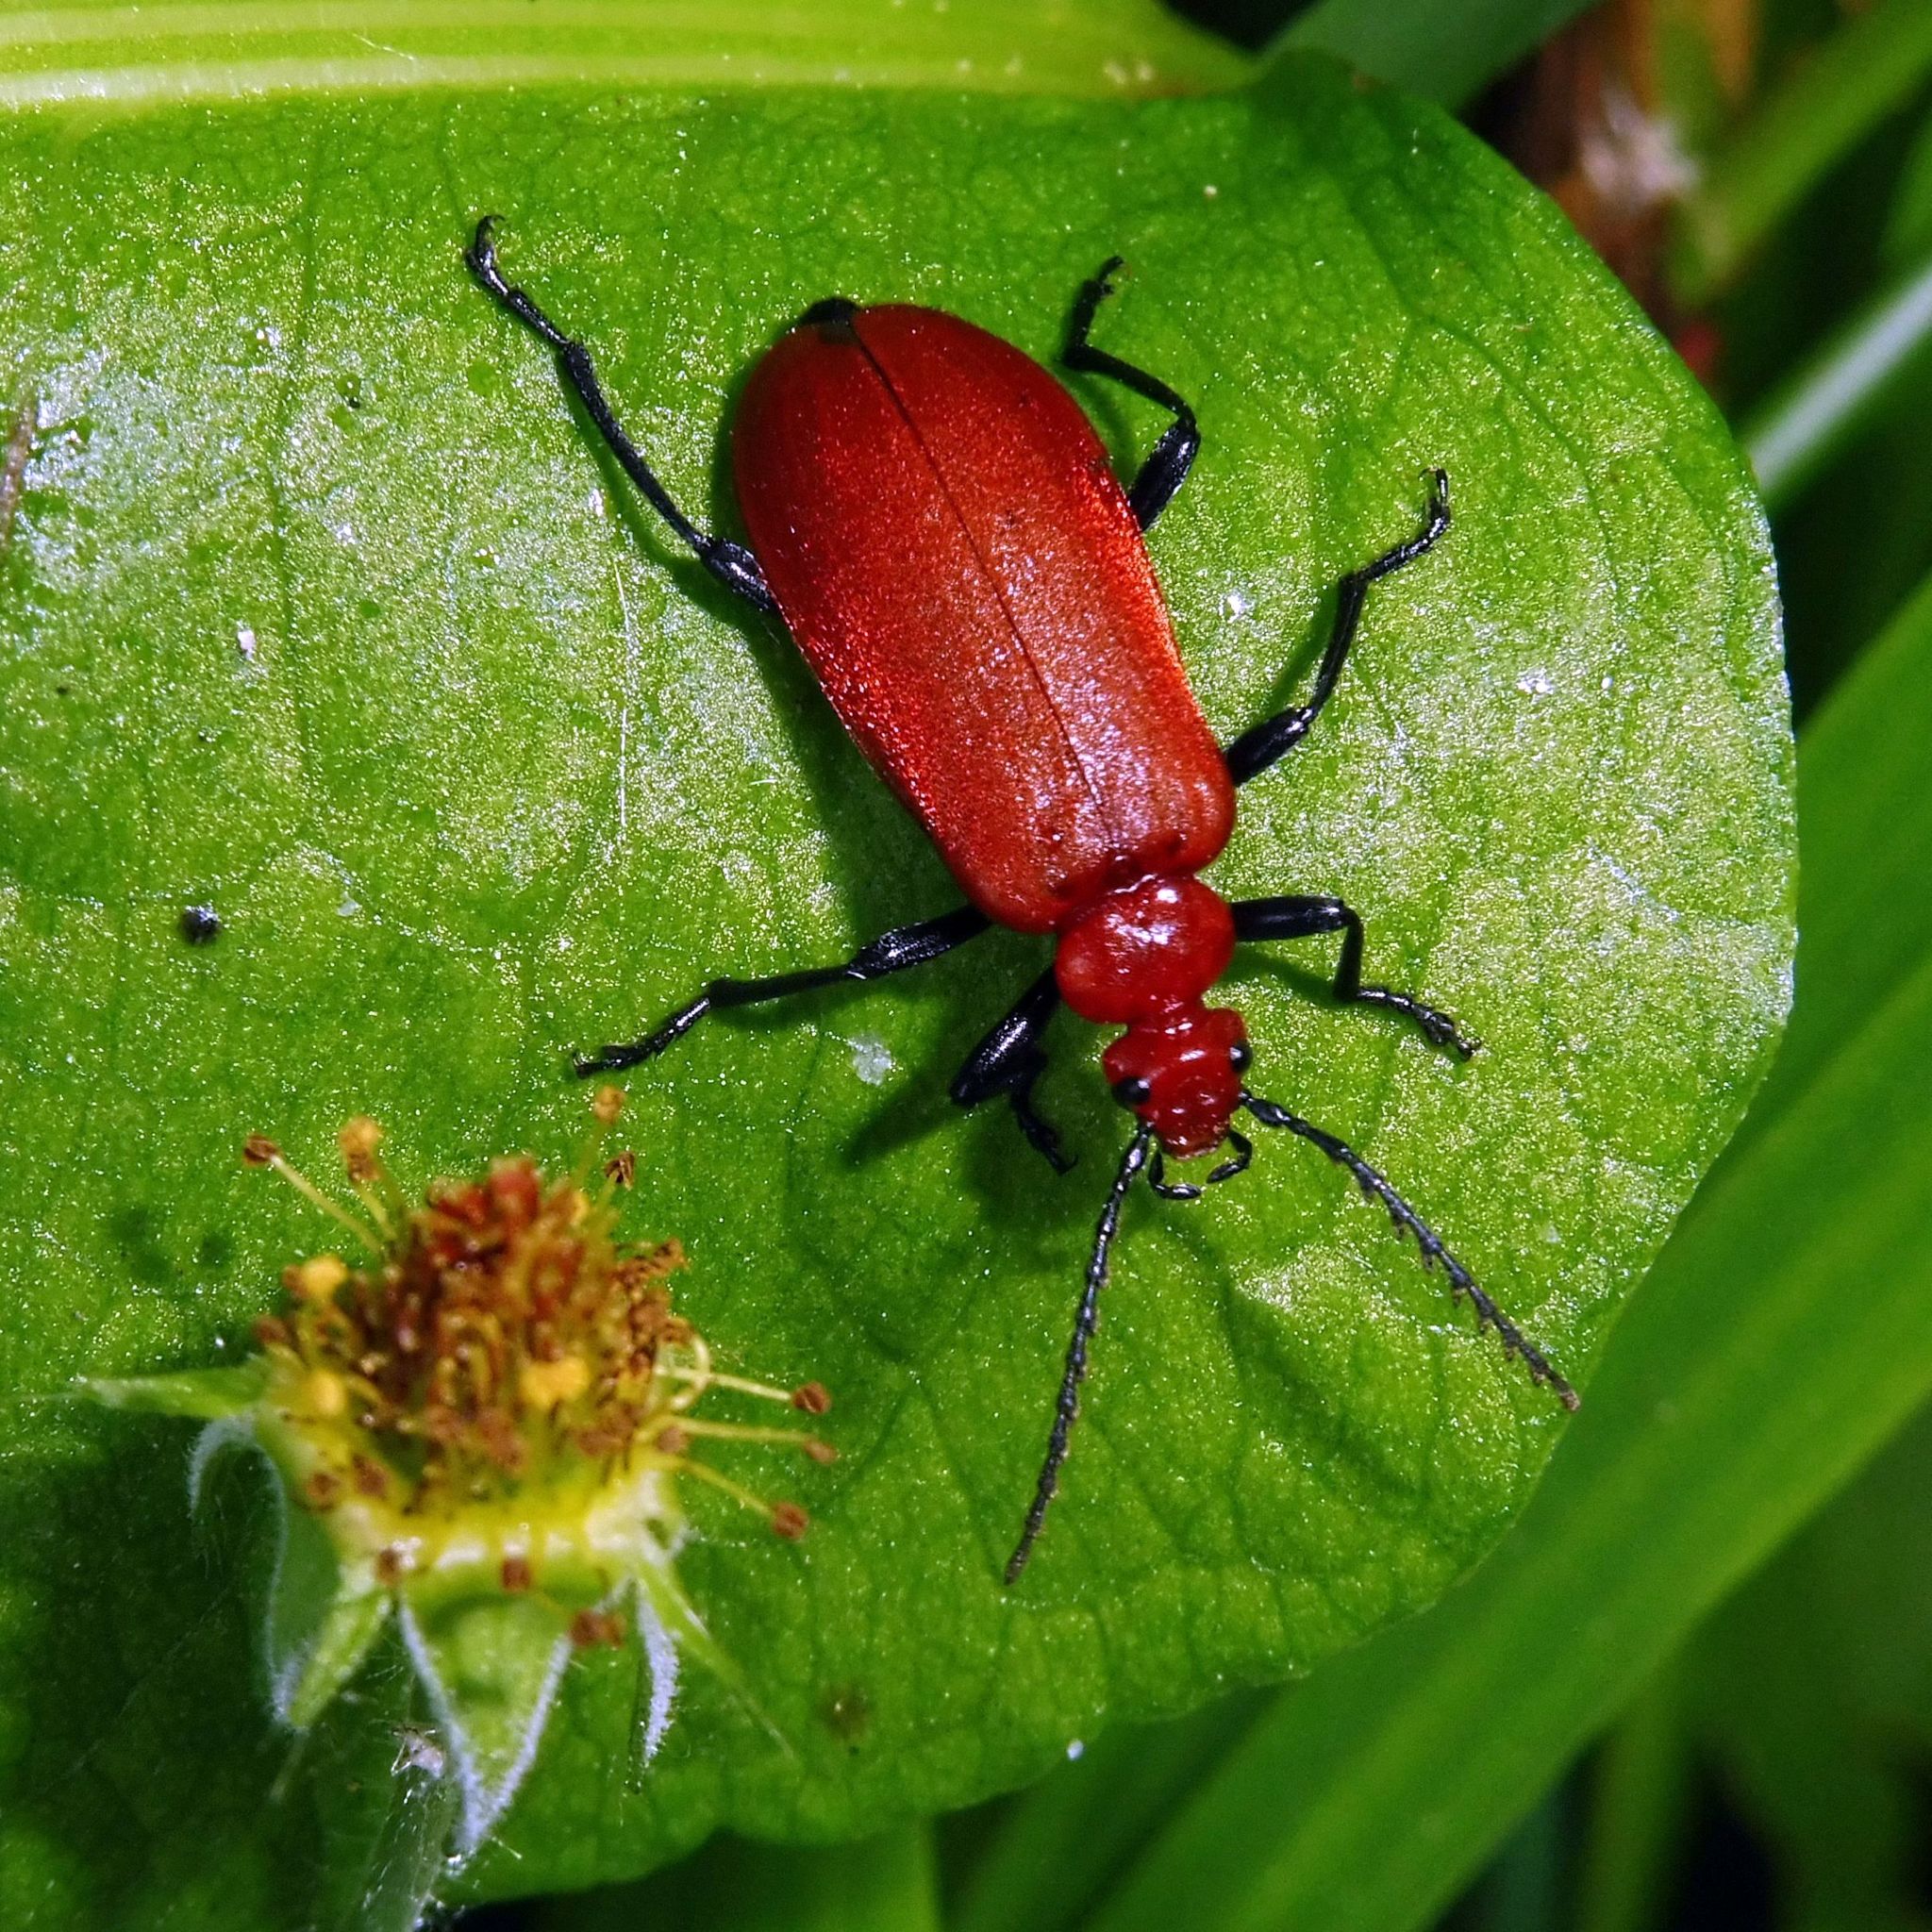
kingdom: Animalia
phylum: Arthropoda
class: Insecta
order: Coleoptera
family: Pyrochroidae
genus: Pyrochroa
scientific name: Pyrochroa serraticornis
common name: Red-headed cardinal beetle
